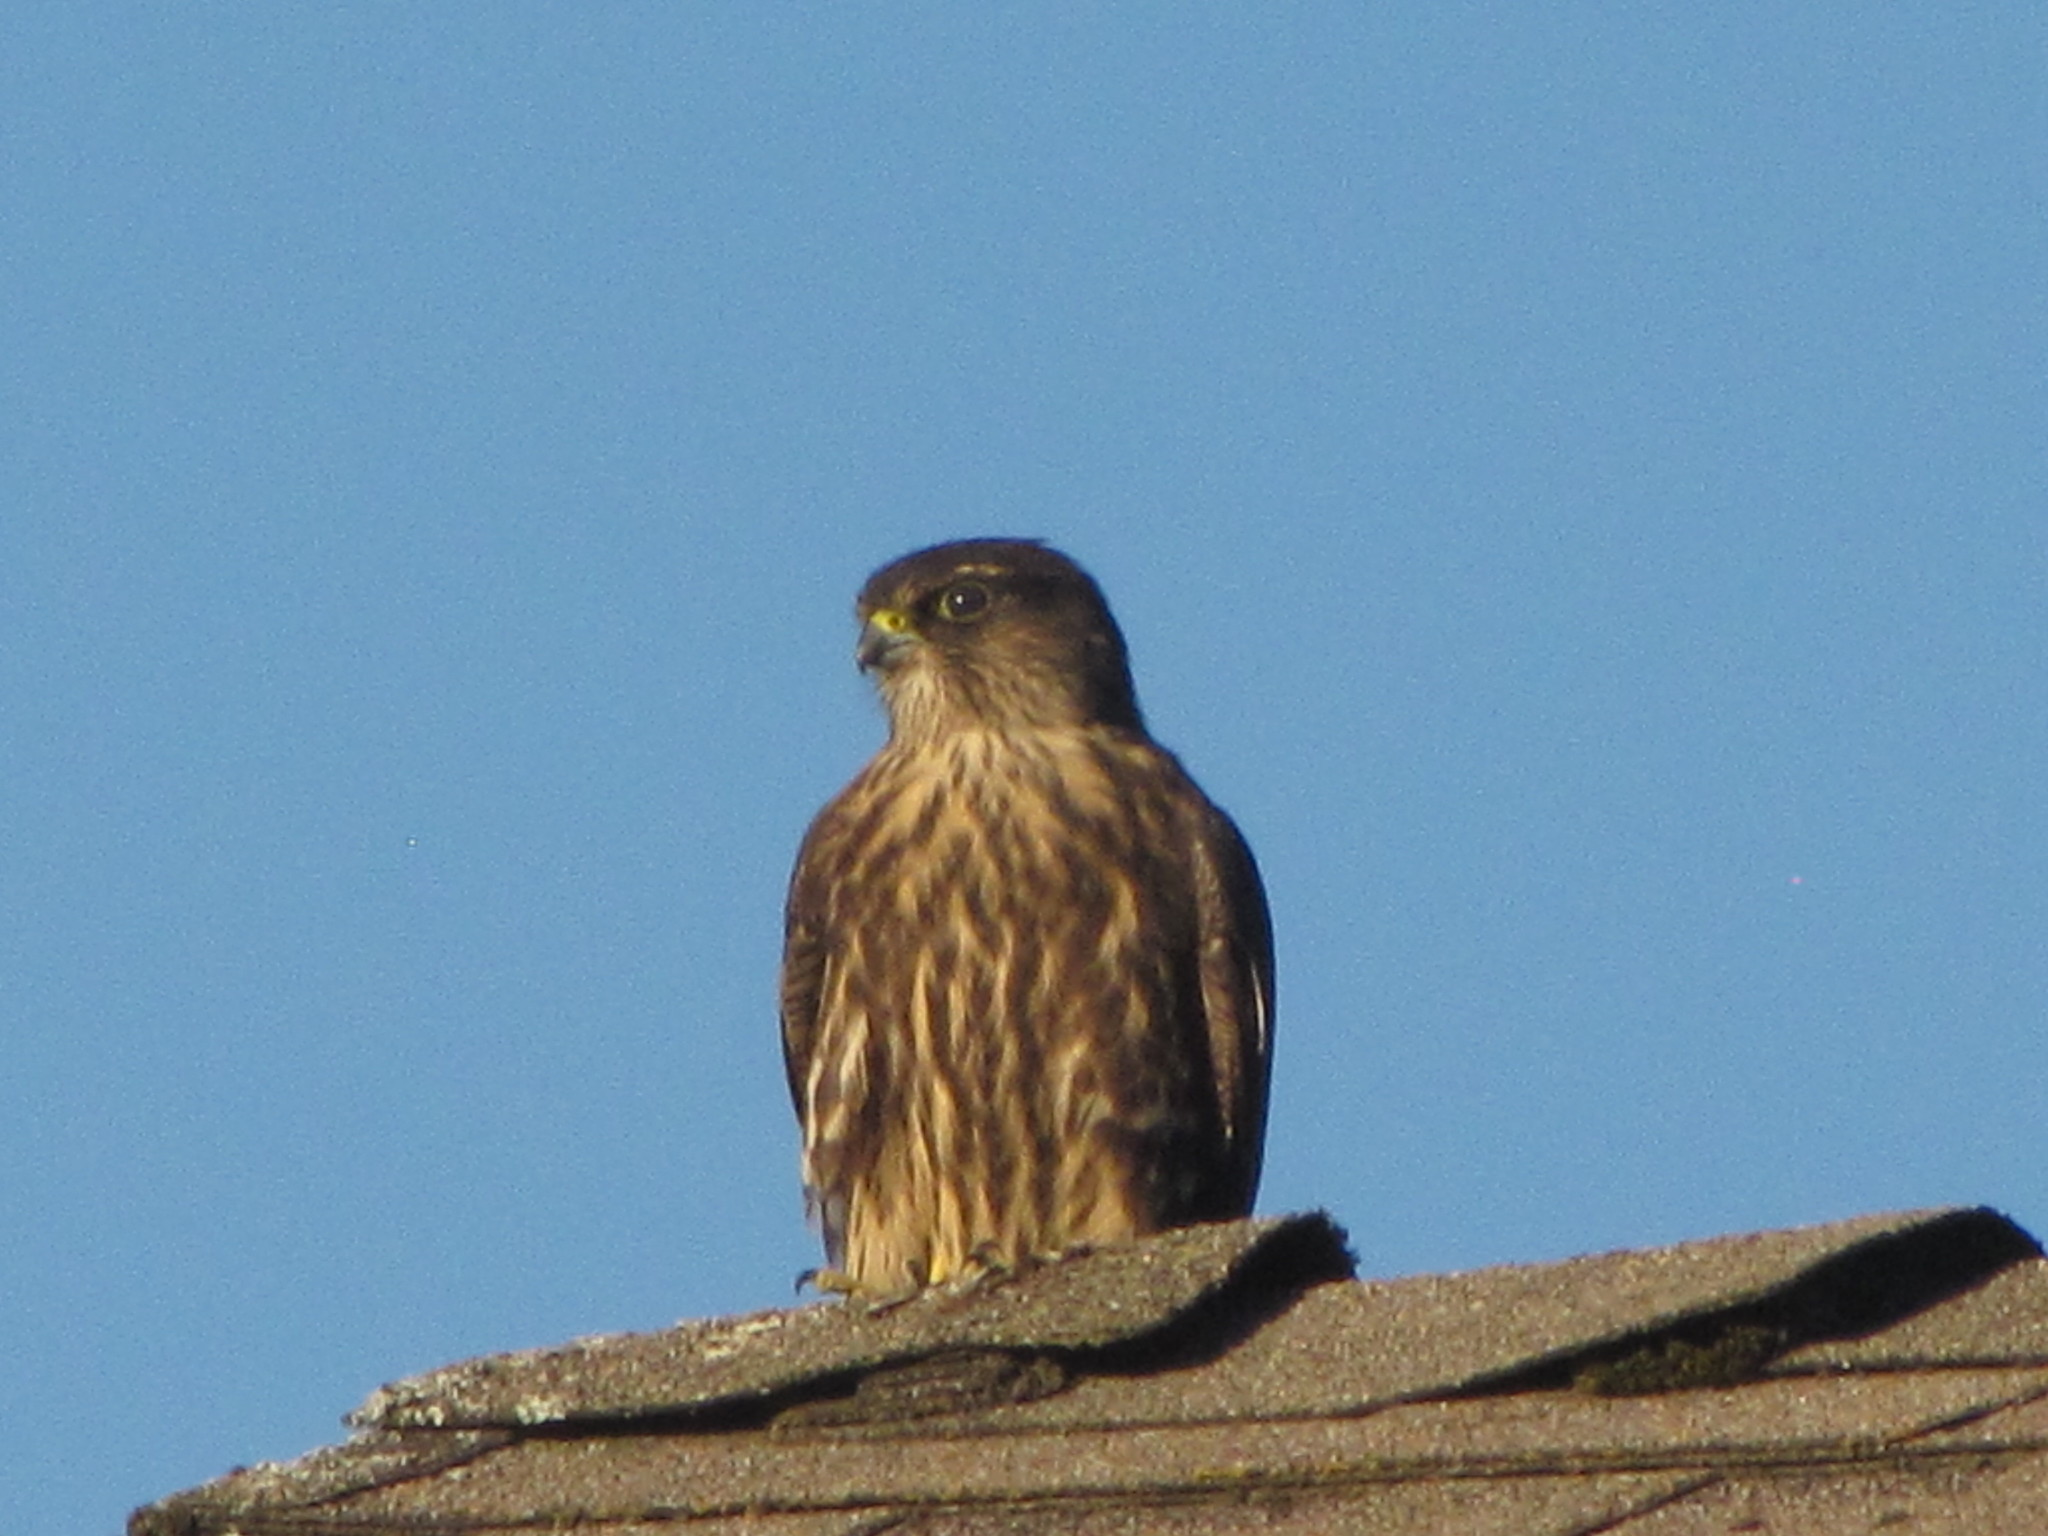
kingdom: Animalia
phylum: Chordata
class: Aves
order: Falconiformes
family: Falconidae
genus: Falco
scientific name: Falco columbarius
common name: Merlin
